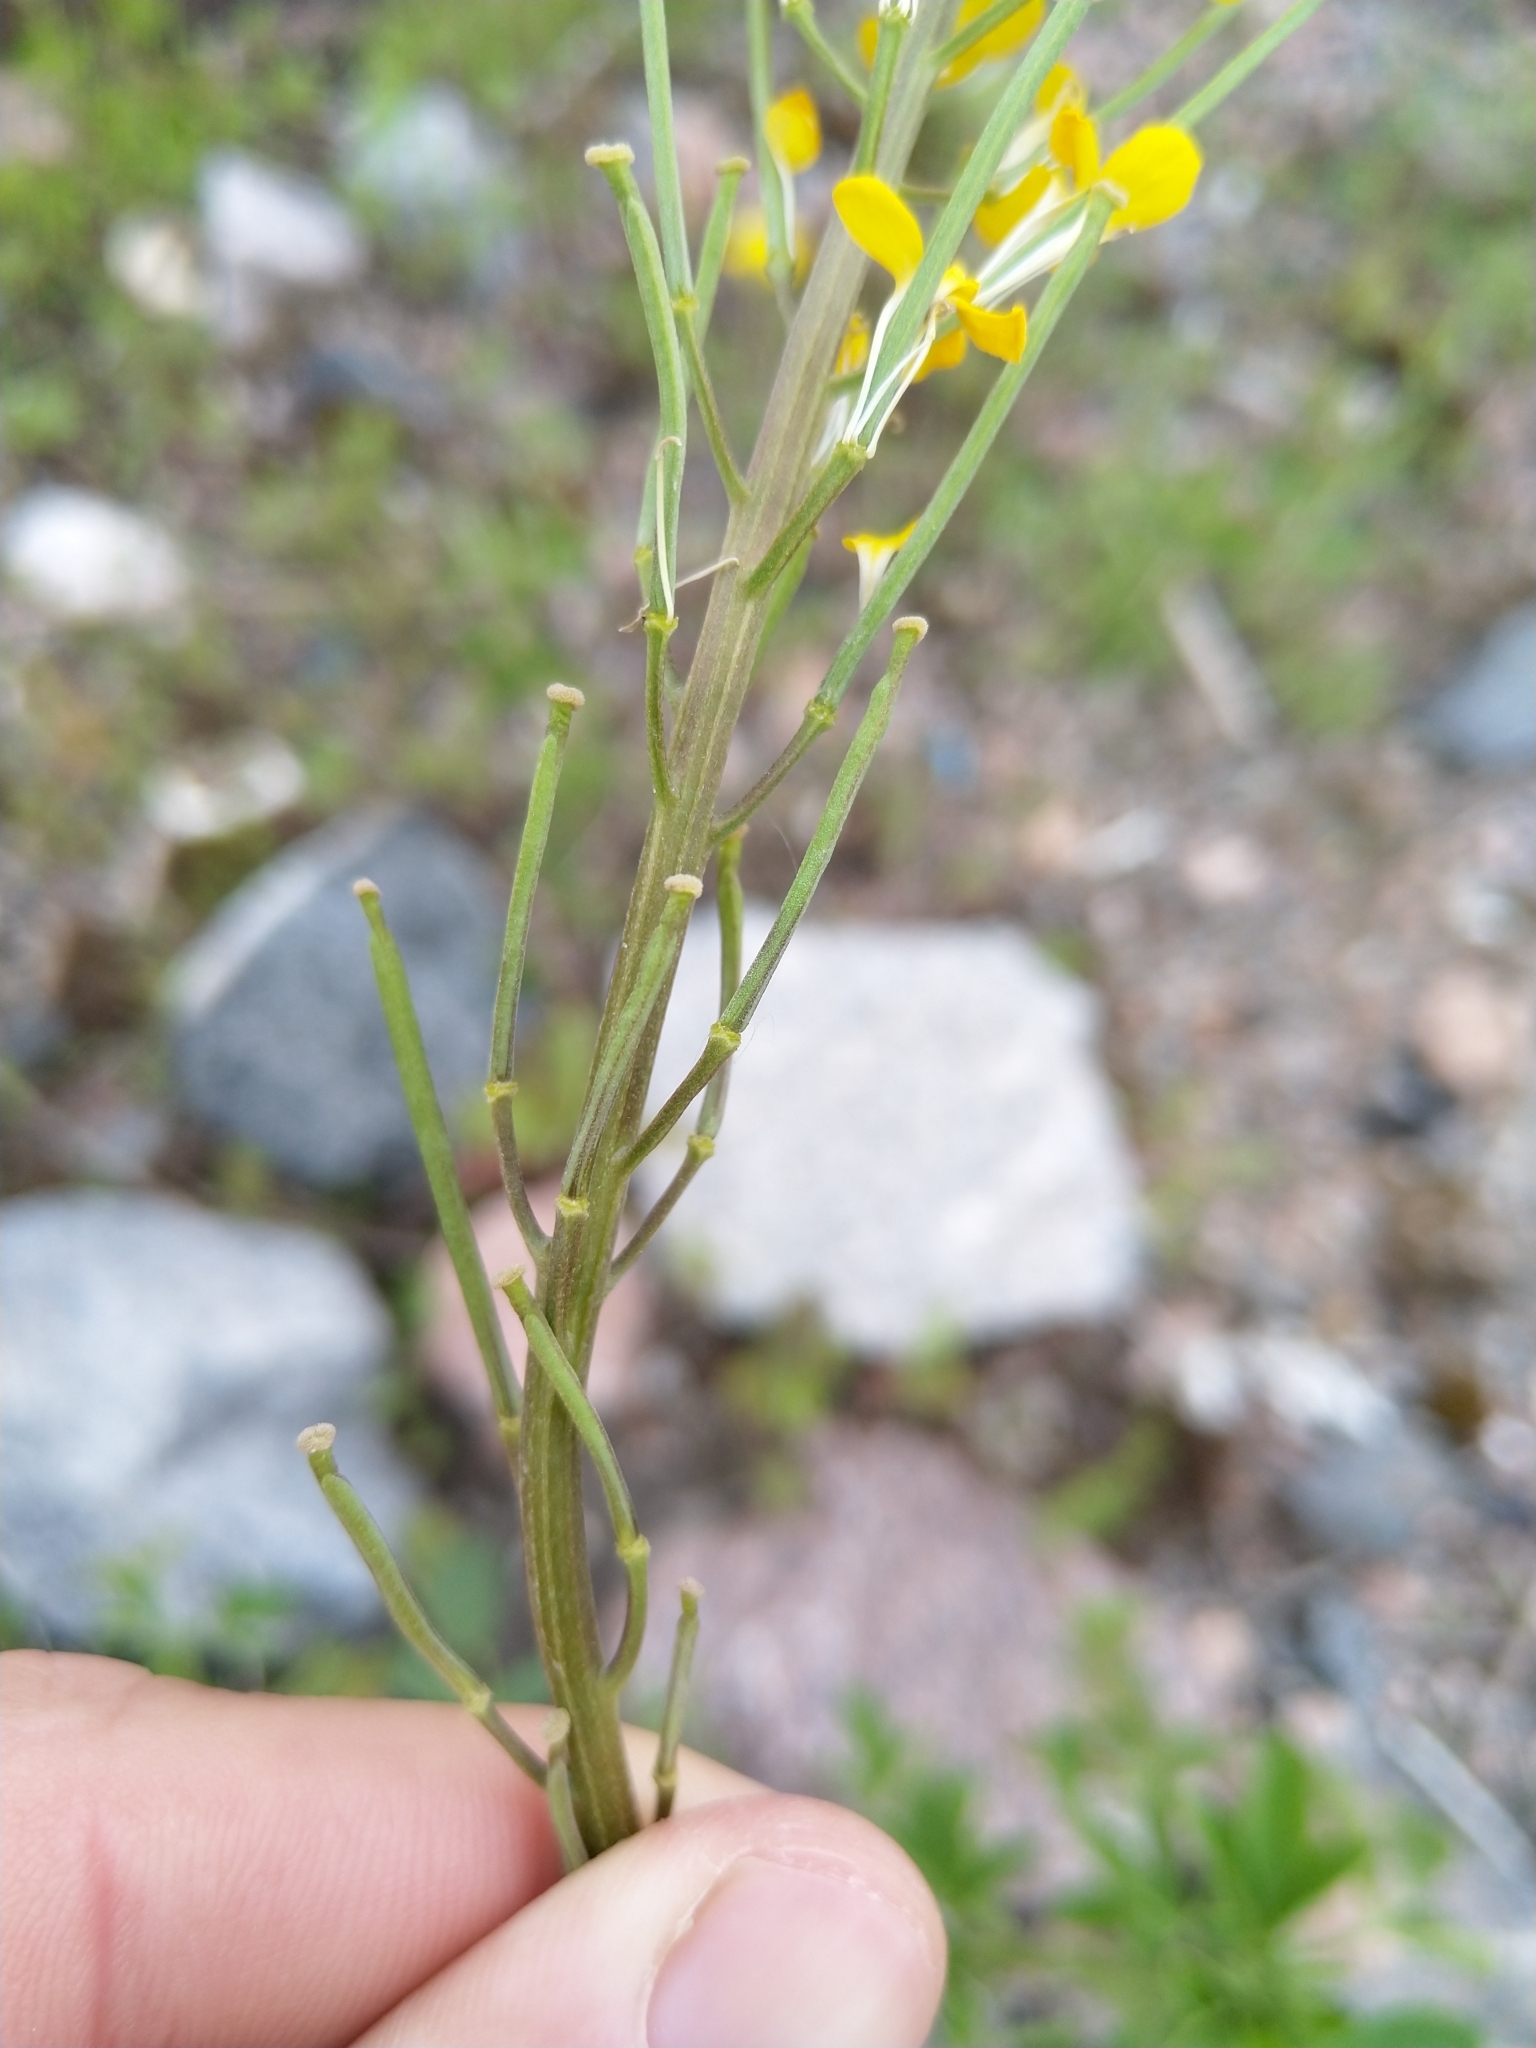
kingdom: Plantae
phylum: Tracheophyta
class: Magnoliopsida
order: Brassicales
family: Brassicaceae
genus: Erysimum
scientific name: Erysimum cheiranthoides
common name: Treacle mustard
